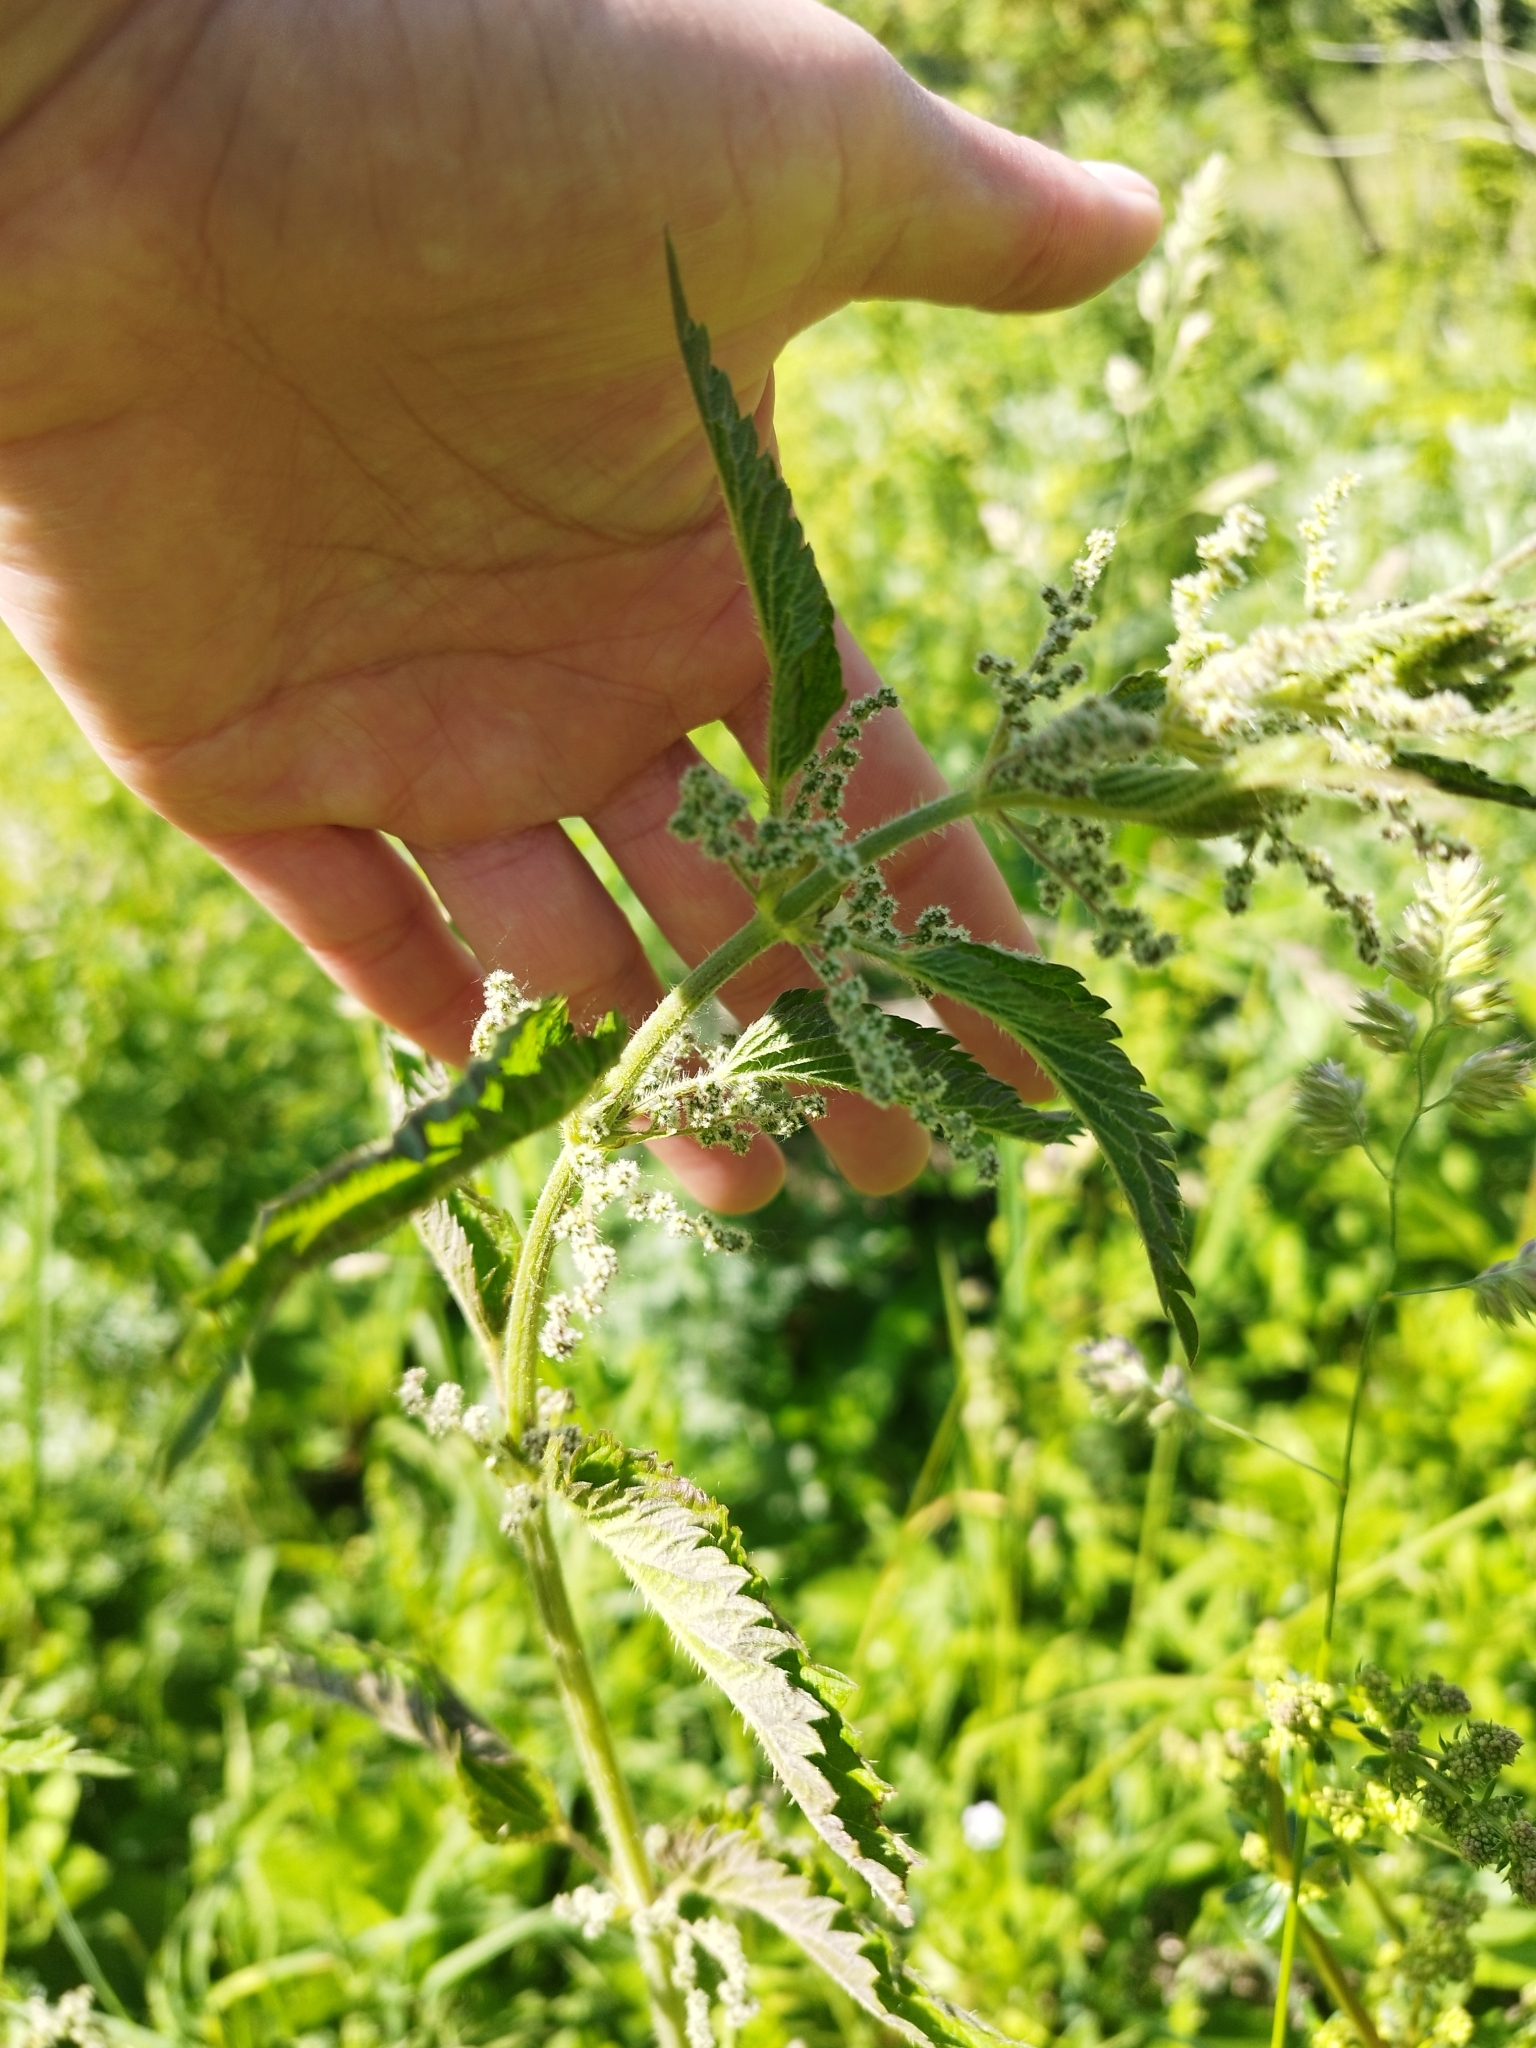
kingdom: Plantae
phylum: Tracheophyta
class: Magnoliopsida
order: Rosales
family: Urticaceae
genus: Urtica
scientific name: Urtica dioica
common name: Common nettle
